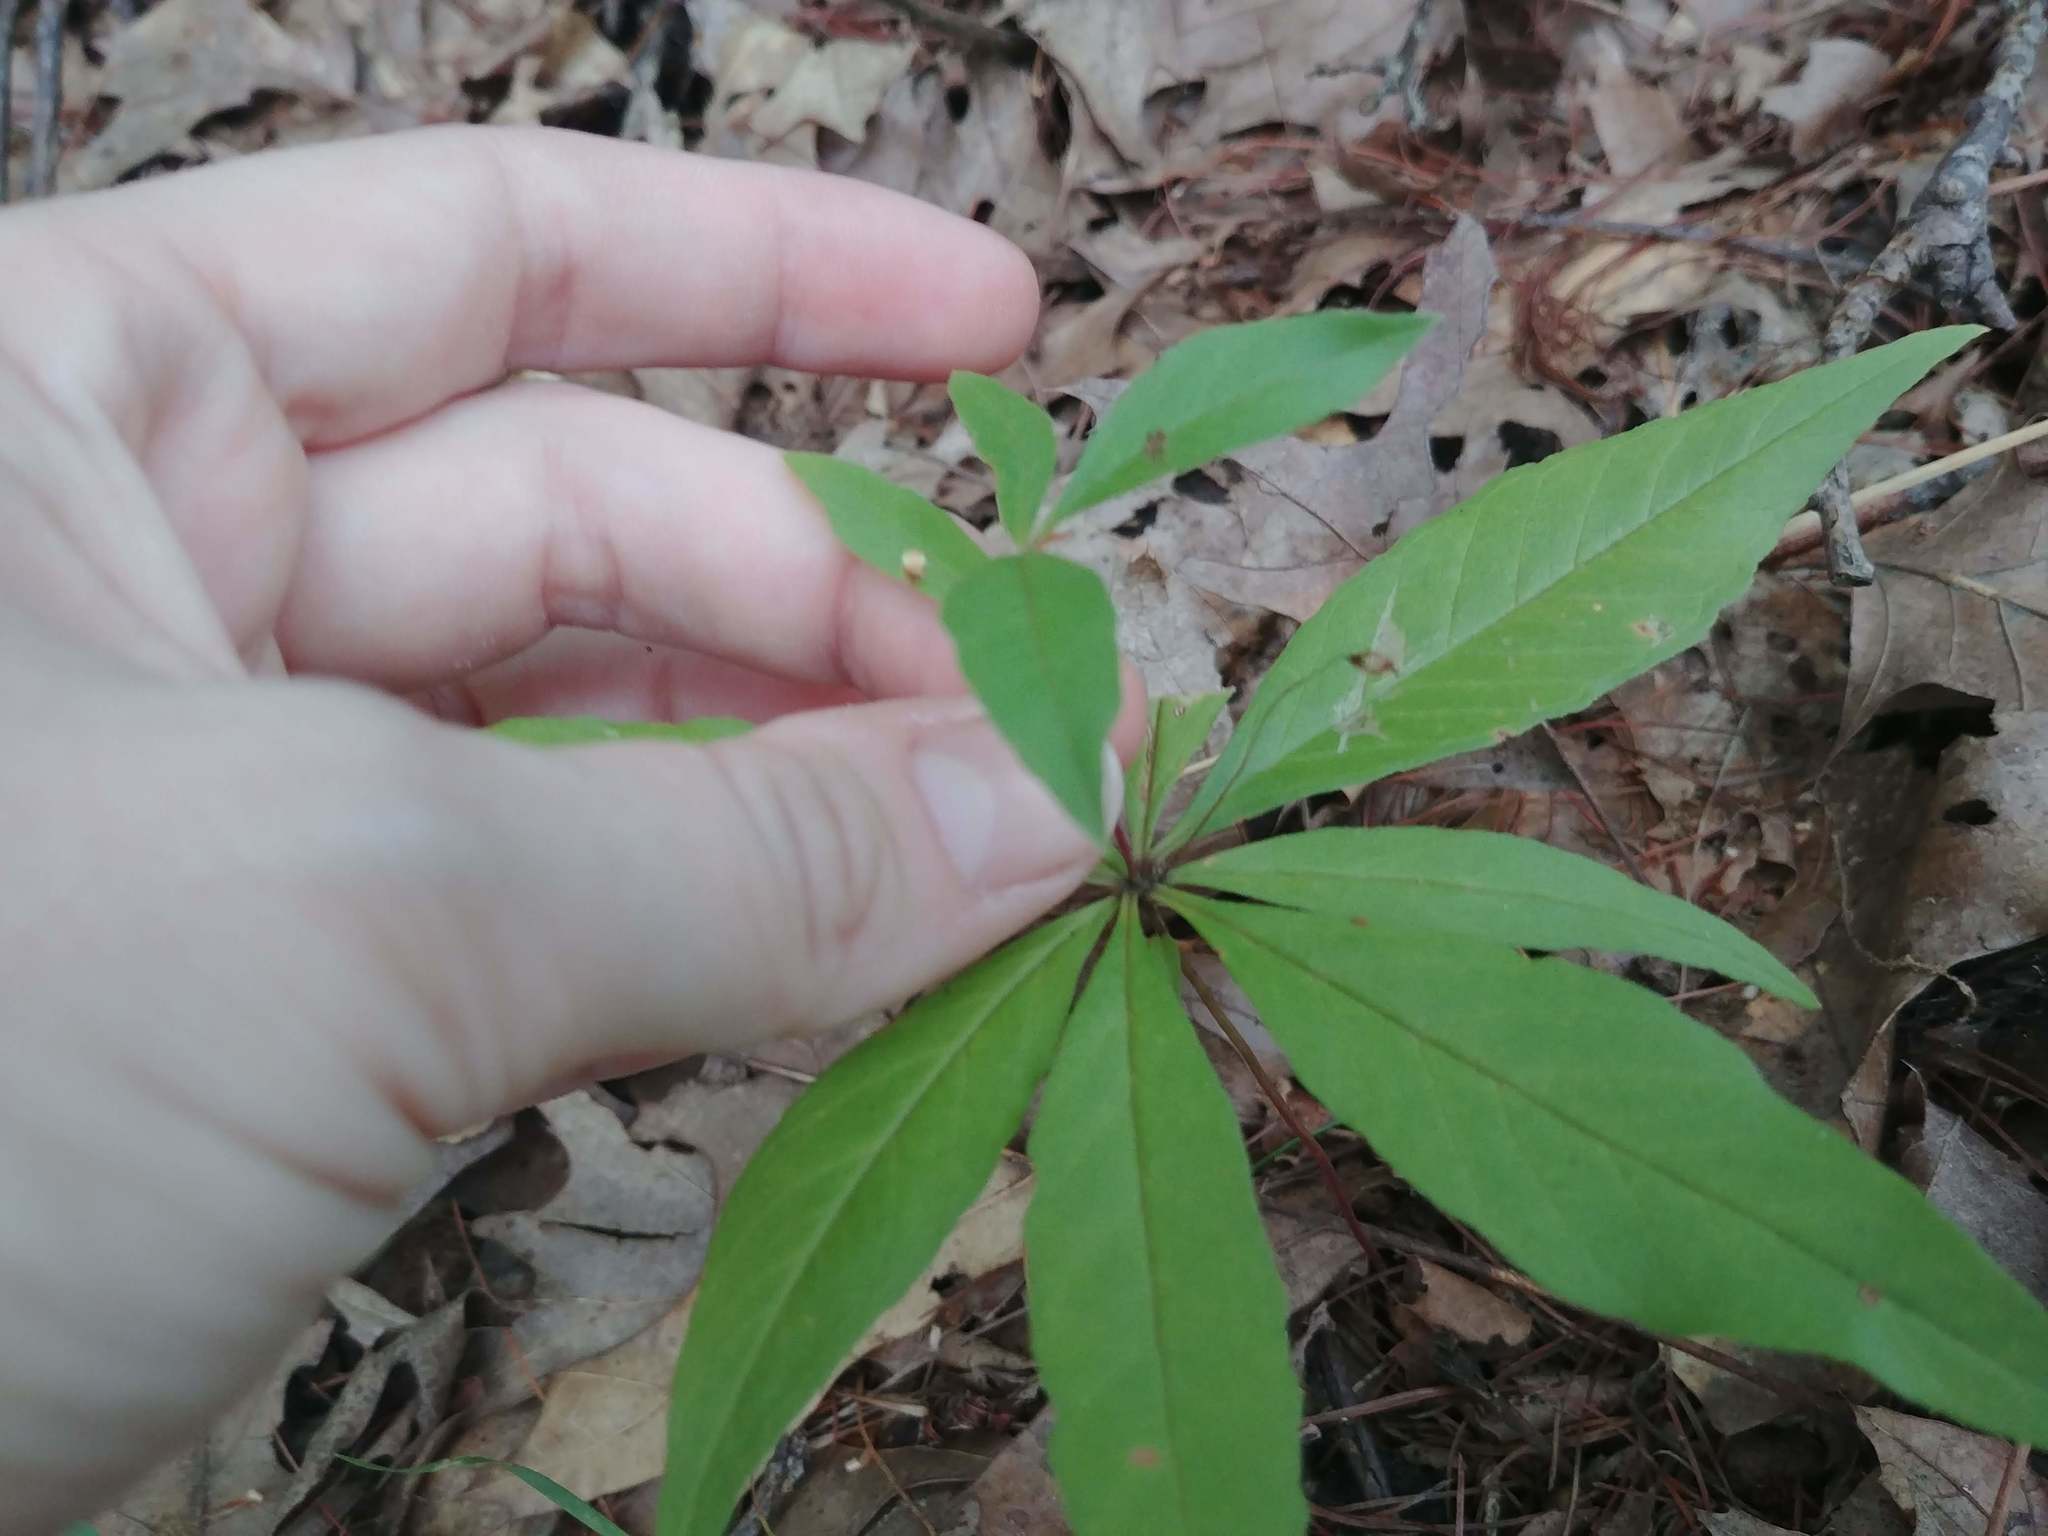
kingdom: Plantae
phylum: Tracheophyta
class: Magnoliopsida
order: Ericales
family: Primulaceae
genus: Lysimachia
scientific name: Lysimachia borealis
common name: American starflower
